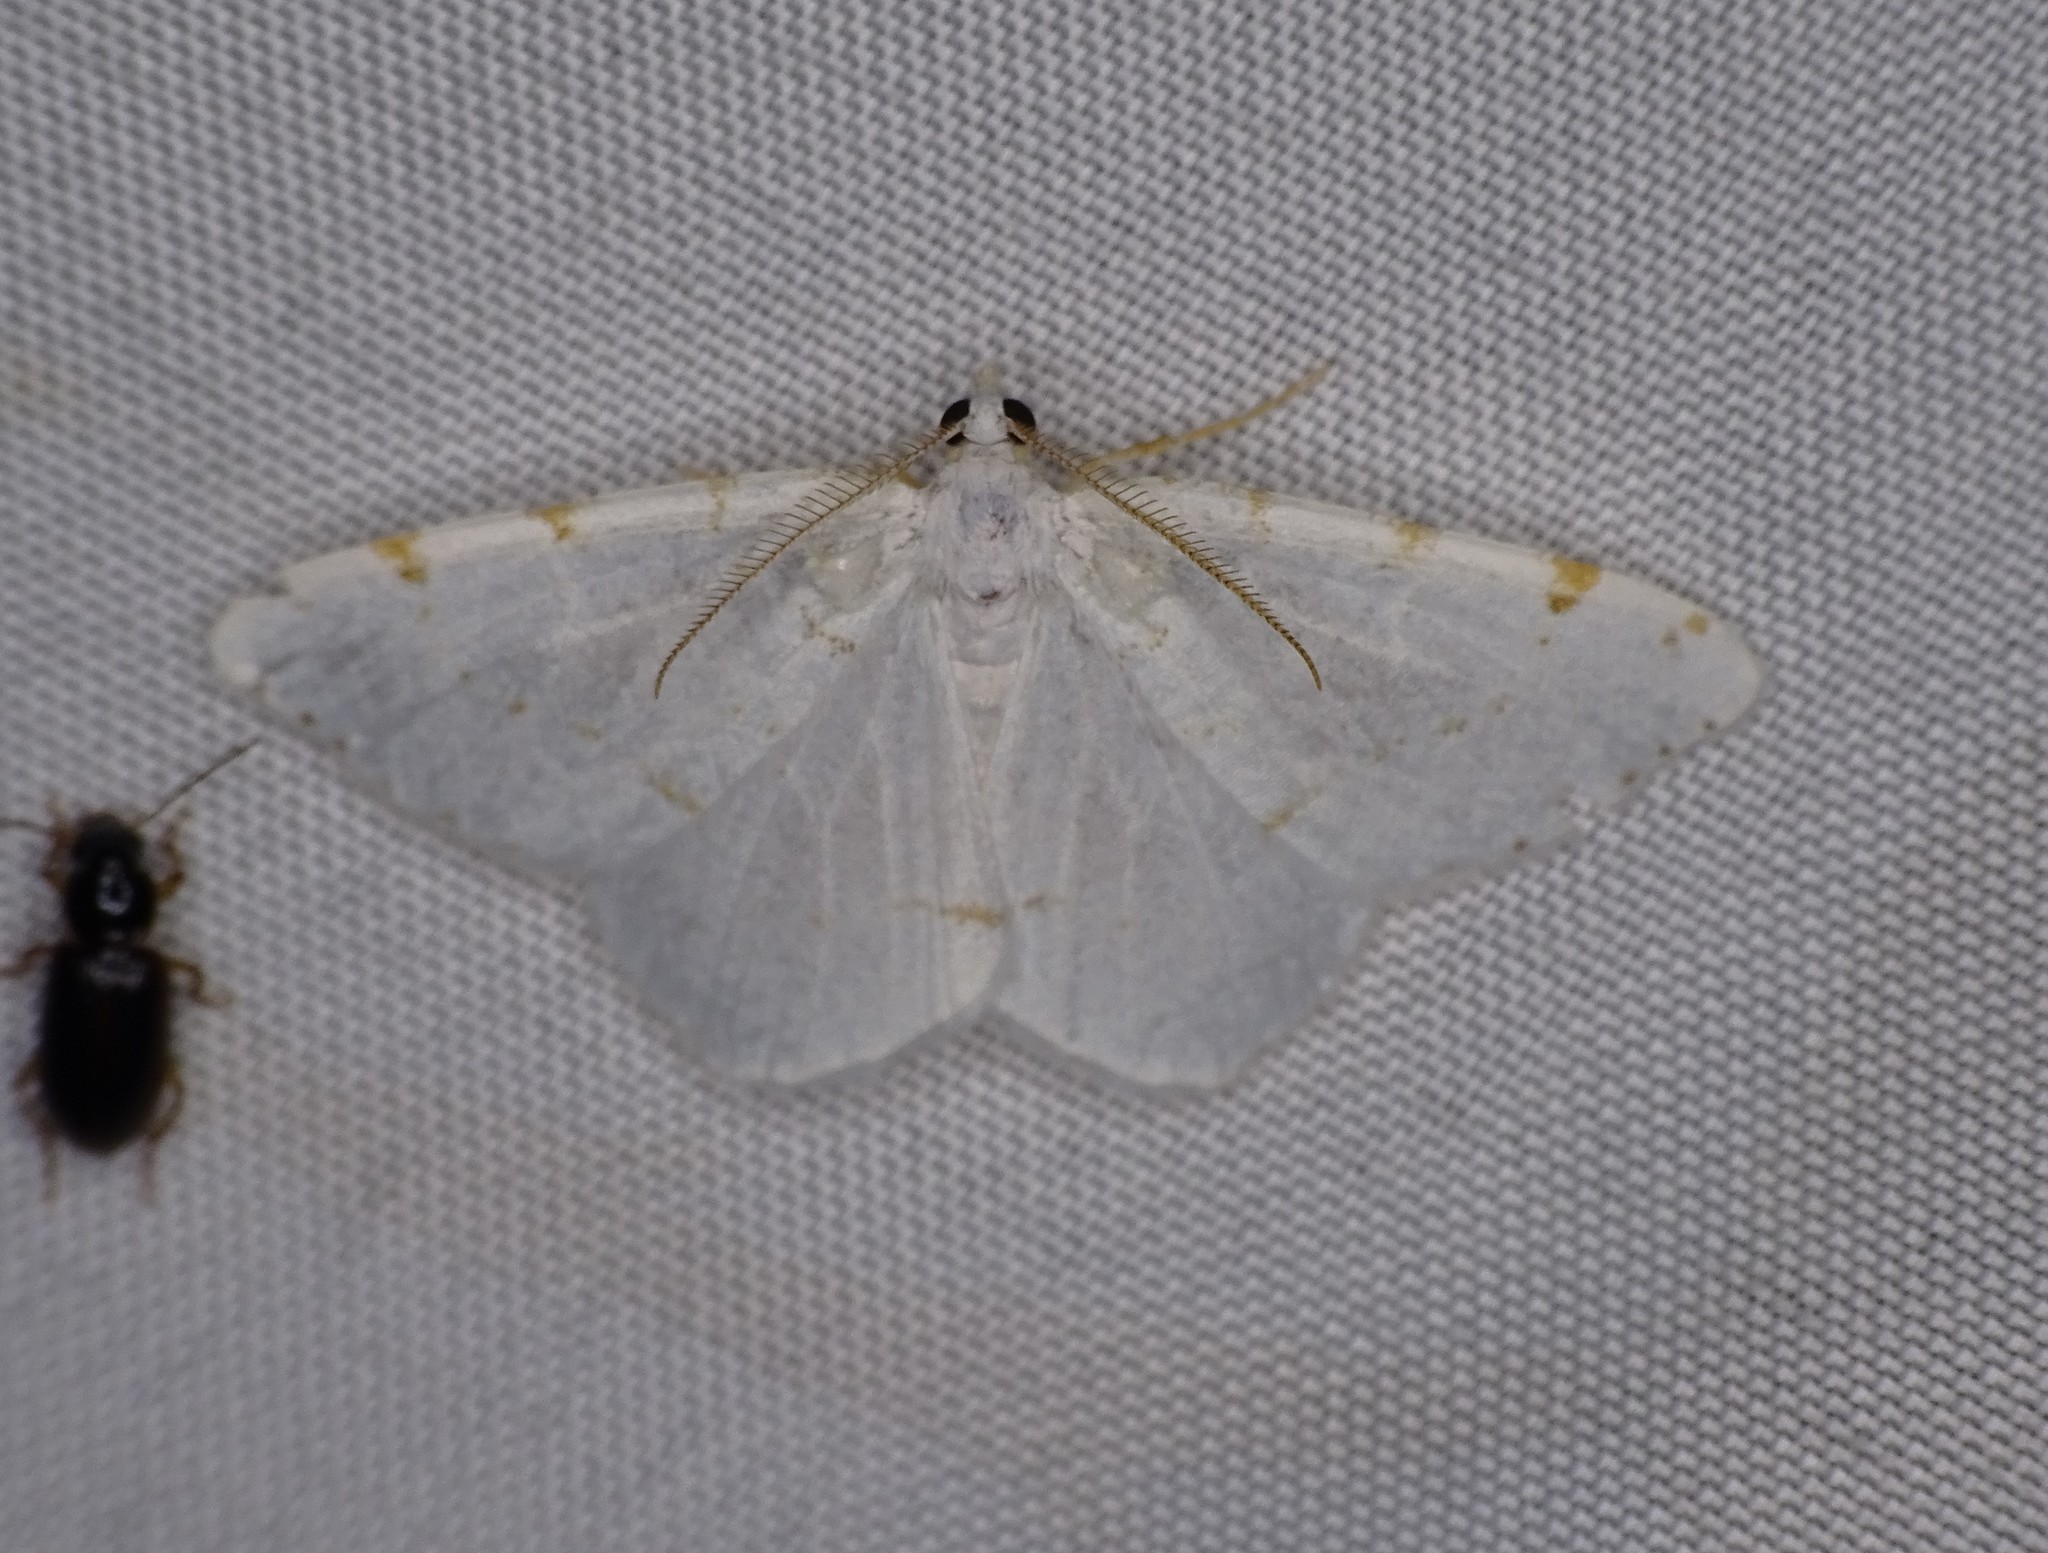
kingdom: Animalia
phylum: Arthropoda
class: Insecta
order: Lepidoptera
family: Geometridae
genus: Macaria
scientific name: Macaria pustularia
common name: Lesser maple spanworm moth
